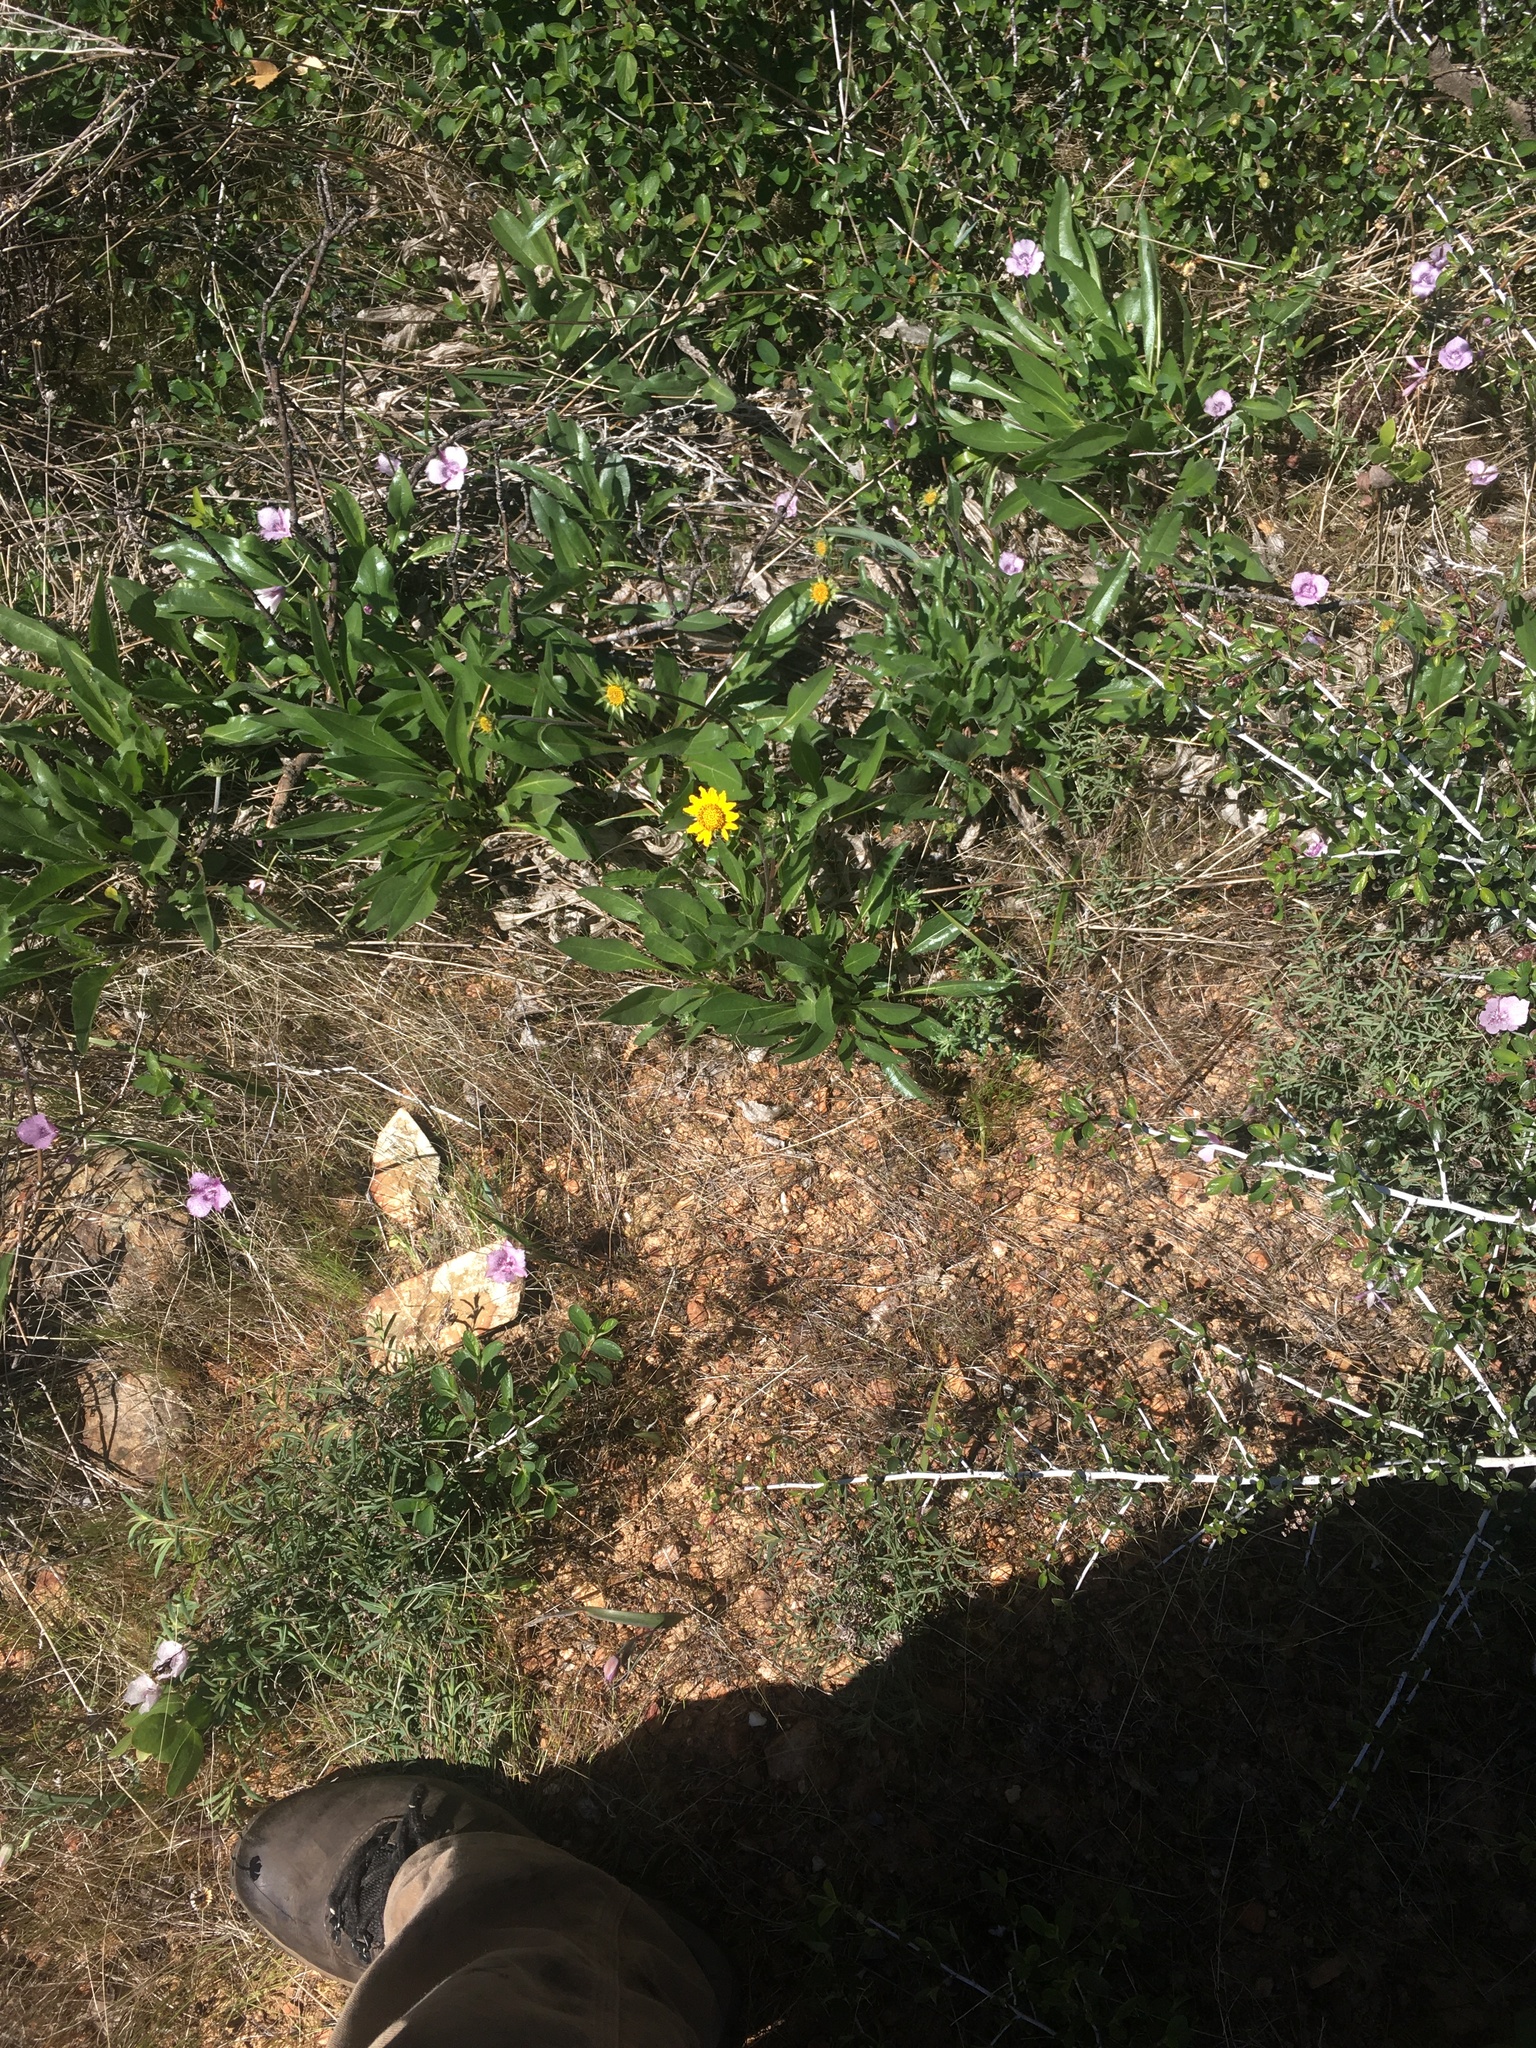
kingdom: Plantae
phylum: Tracheophyta
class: Magnoliopsida
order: Asterales
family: Asteraceae
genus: Helianthella
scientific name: Helianthella californica
